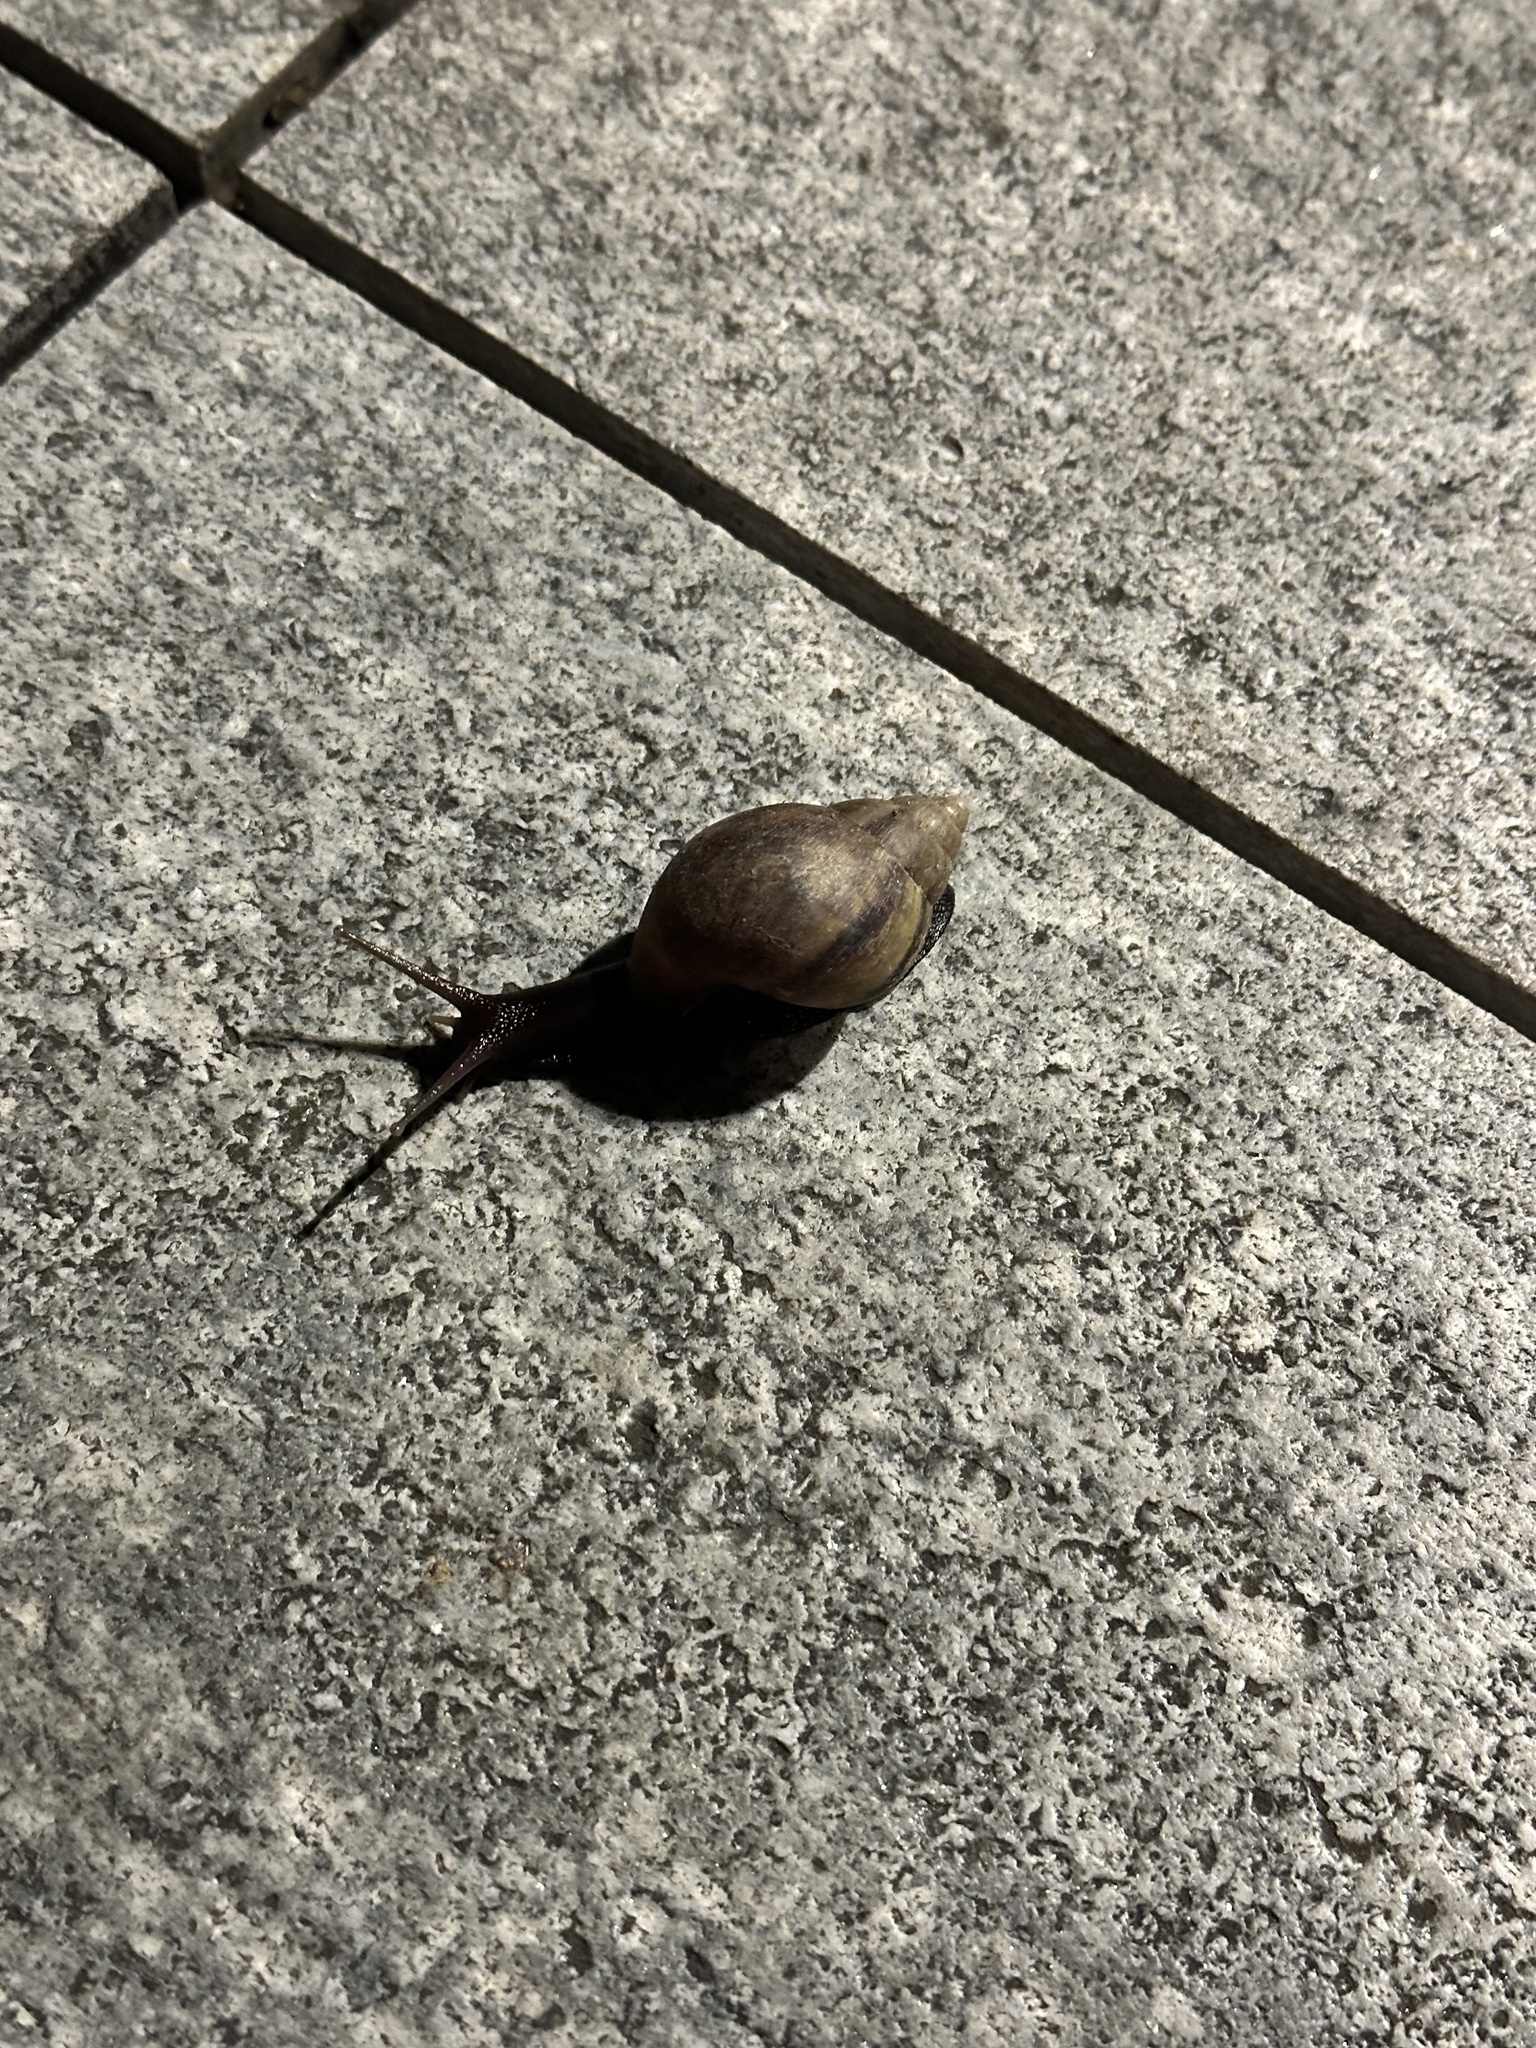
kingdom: Animalia
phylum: Mollusca
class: Gastropoda
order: Stylommatophora
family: Achatinidae
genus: Lissachatina
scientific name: Lissachatina fulica
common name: Giant african snail
